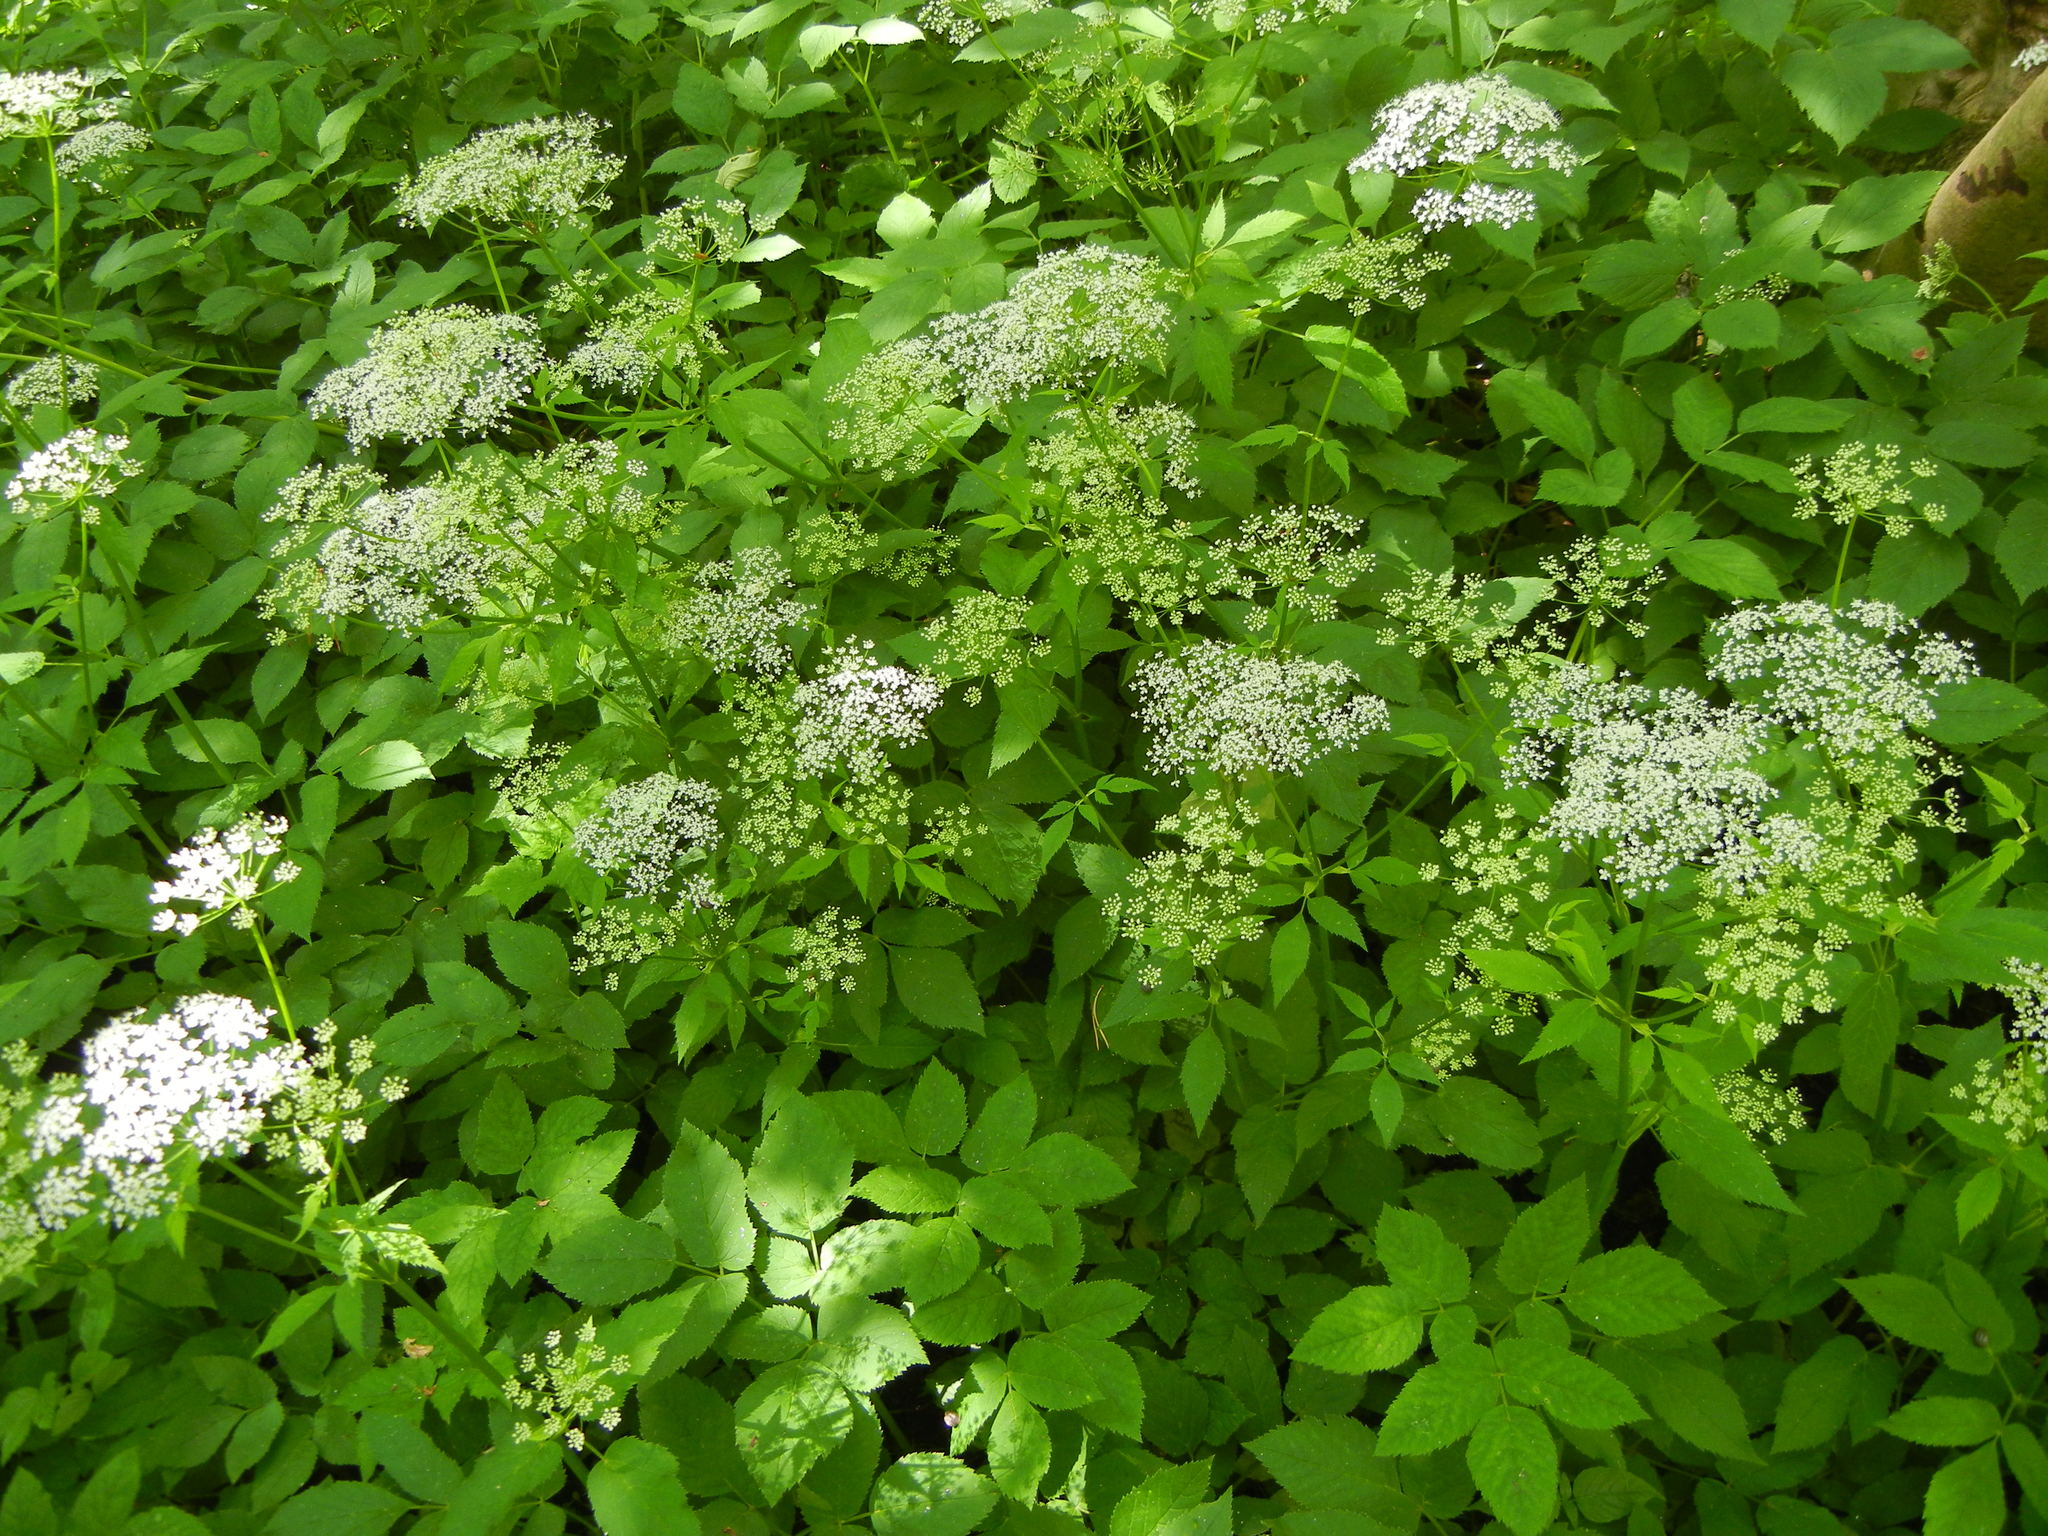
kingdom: Plantae
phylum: Tracheophyta
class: Magnoliopsida
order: Apiales
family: Apiaceae
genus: Aegopodium
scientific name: Aegopodium podagraria
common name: Ground-elder
